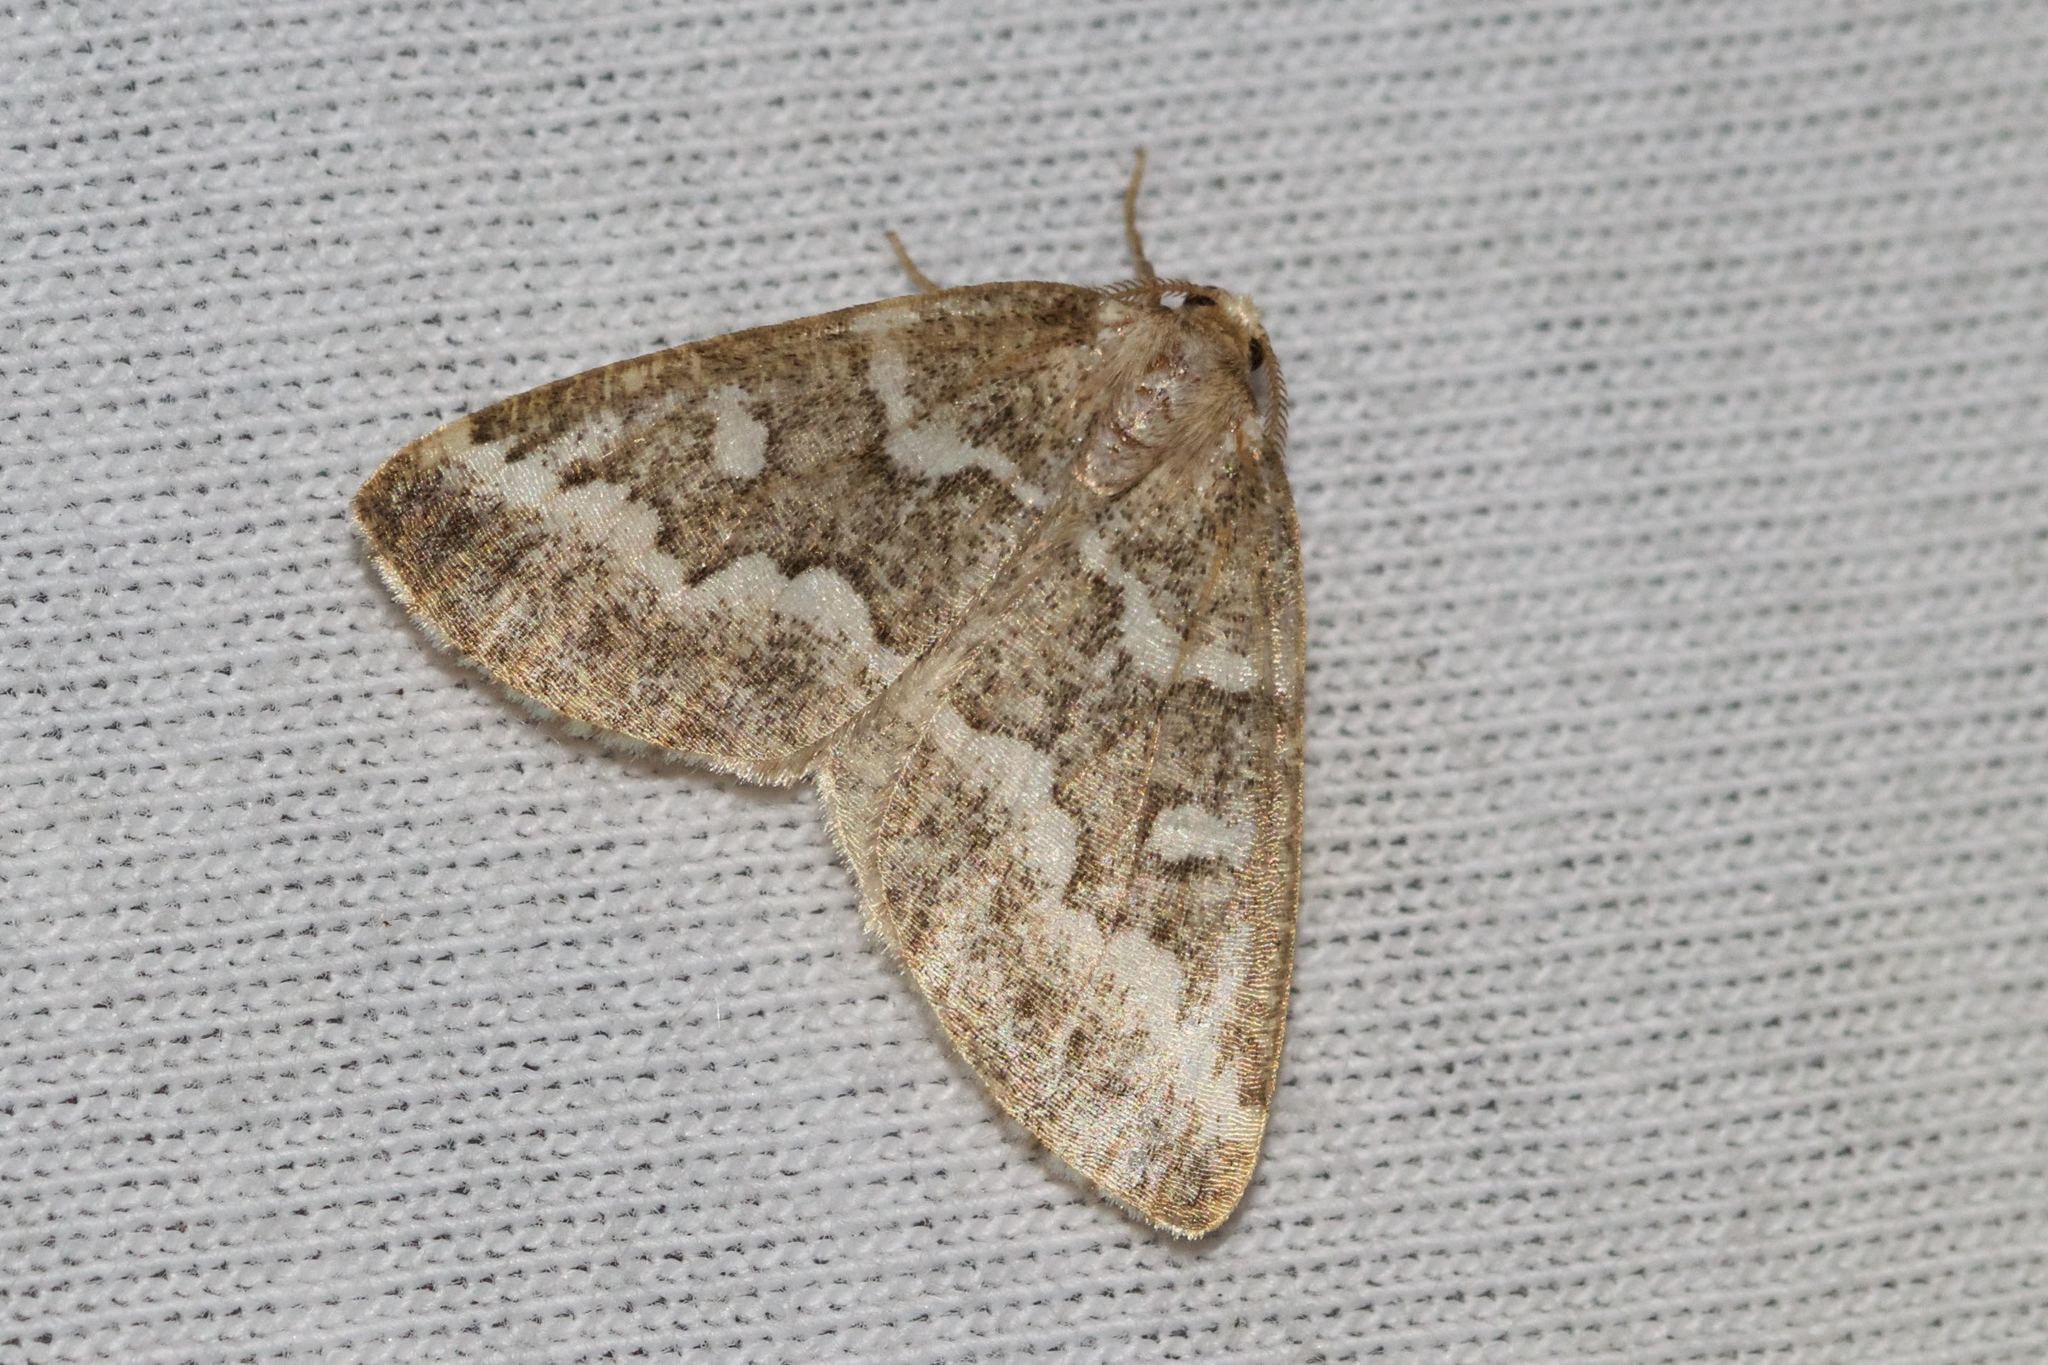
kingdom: Animalia
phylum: Arthropoda
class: Insecta
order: Lepidoptera
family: Geometridae
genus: Caripeta
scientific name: Caripeta divisata
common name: Gray spruce looper
